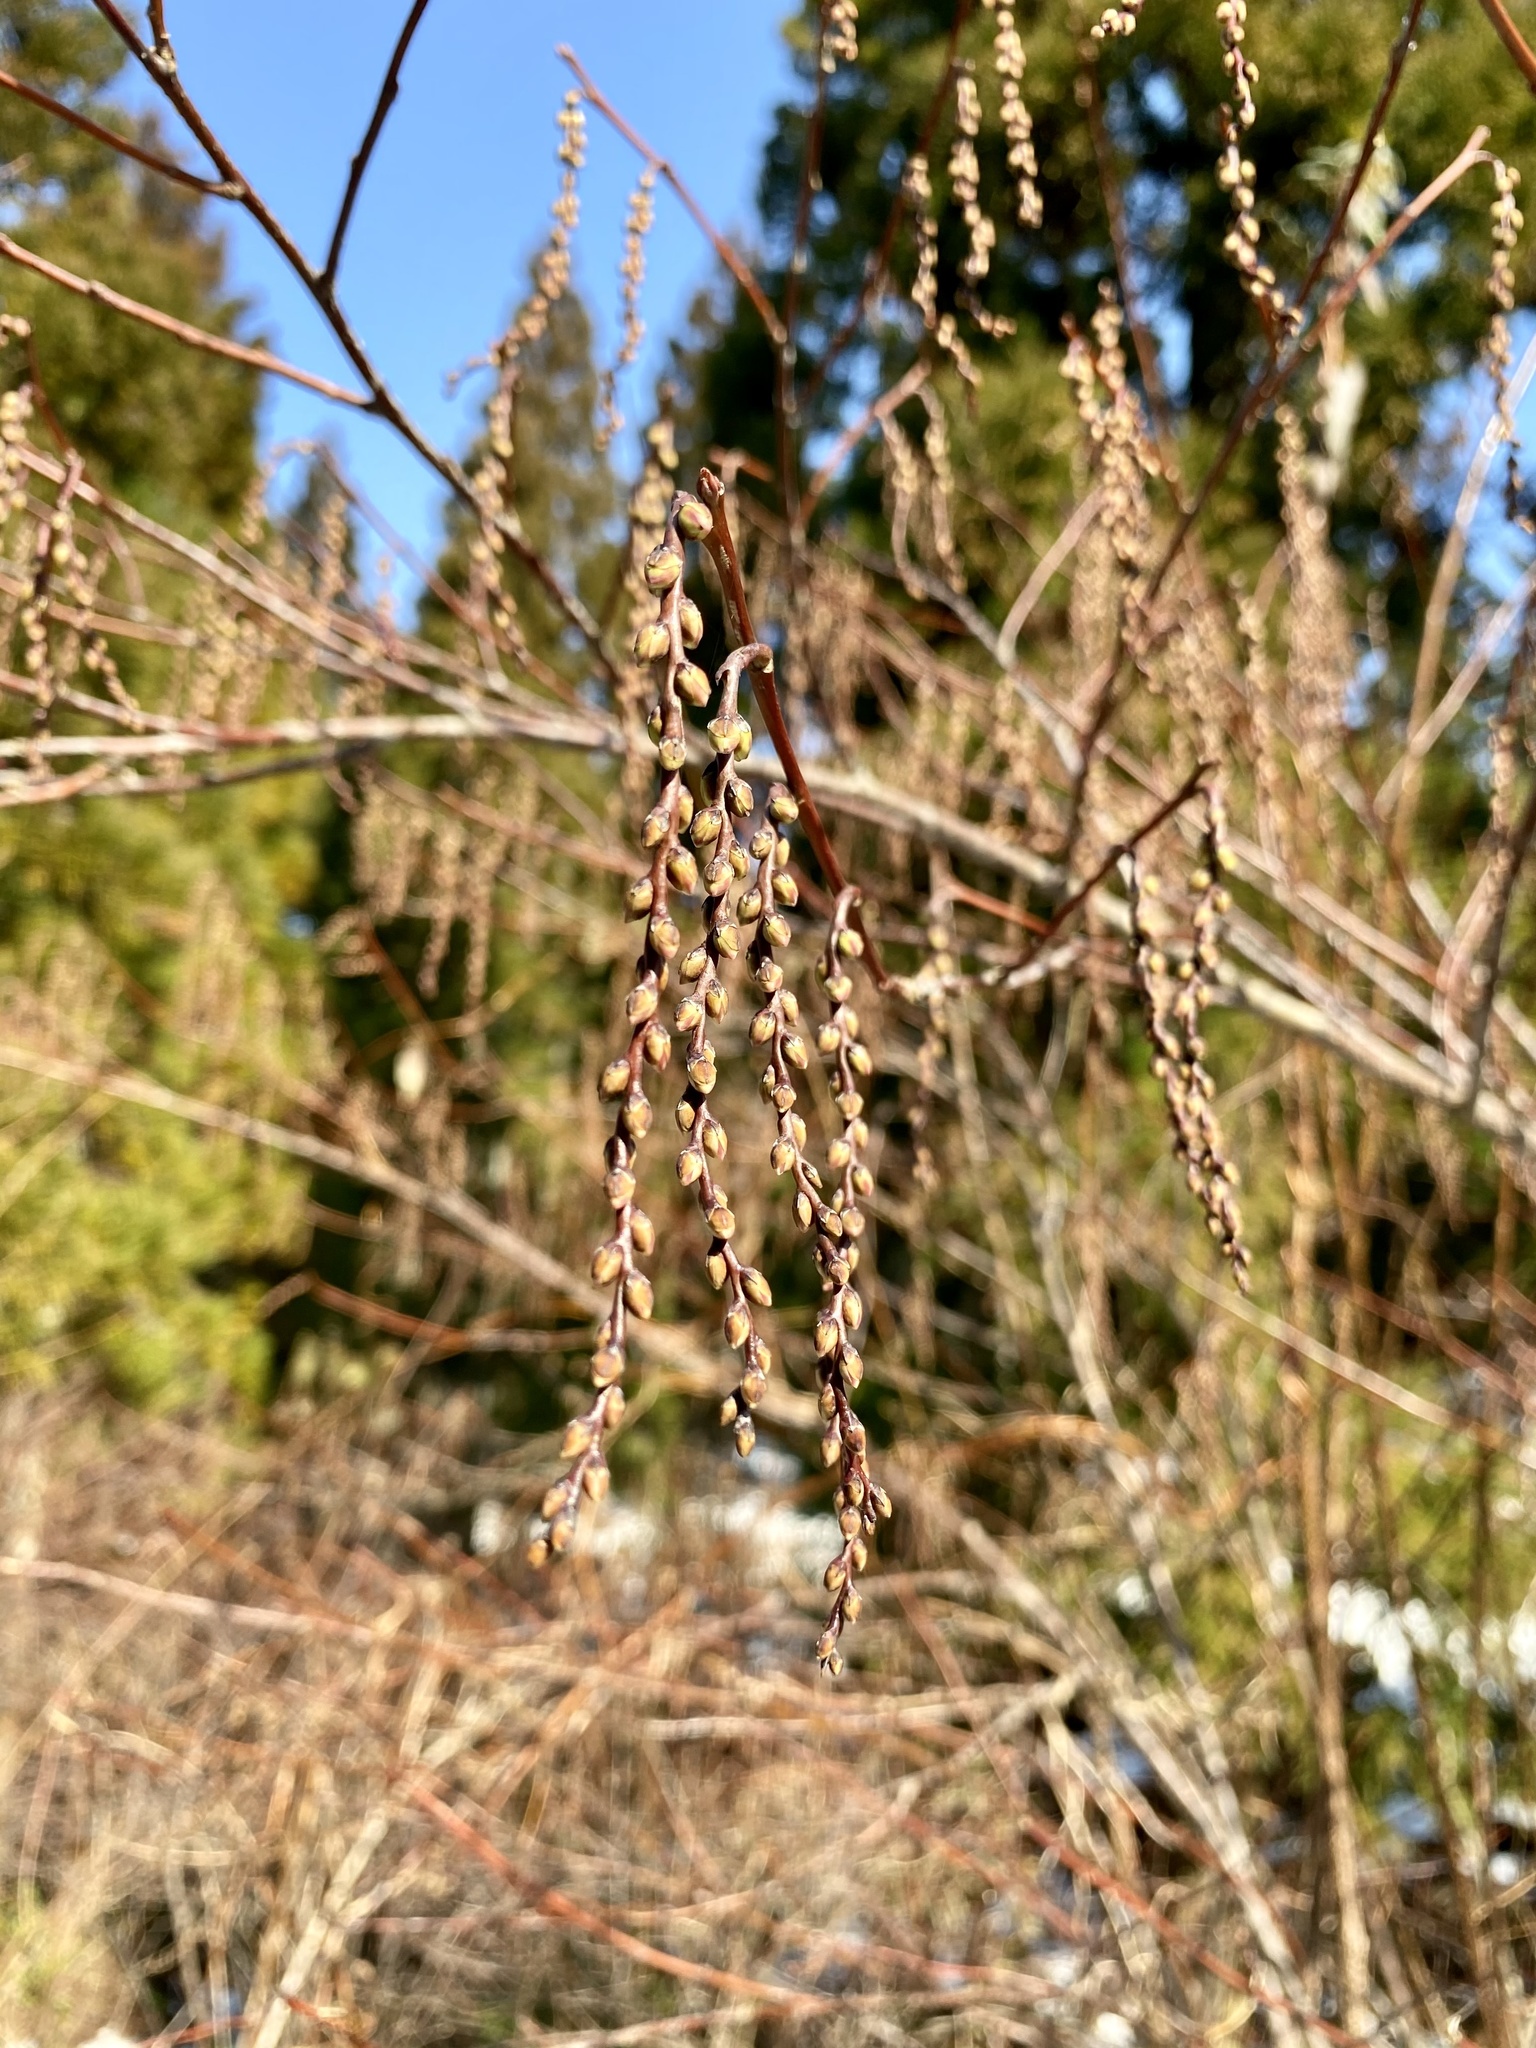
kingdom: Plantae
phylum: Tracheophyta
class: Magnoliopsida
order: Crossosomatales
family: Stachyuraceae
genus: Stachyurus
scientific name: Stachyurus praecox
